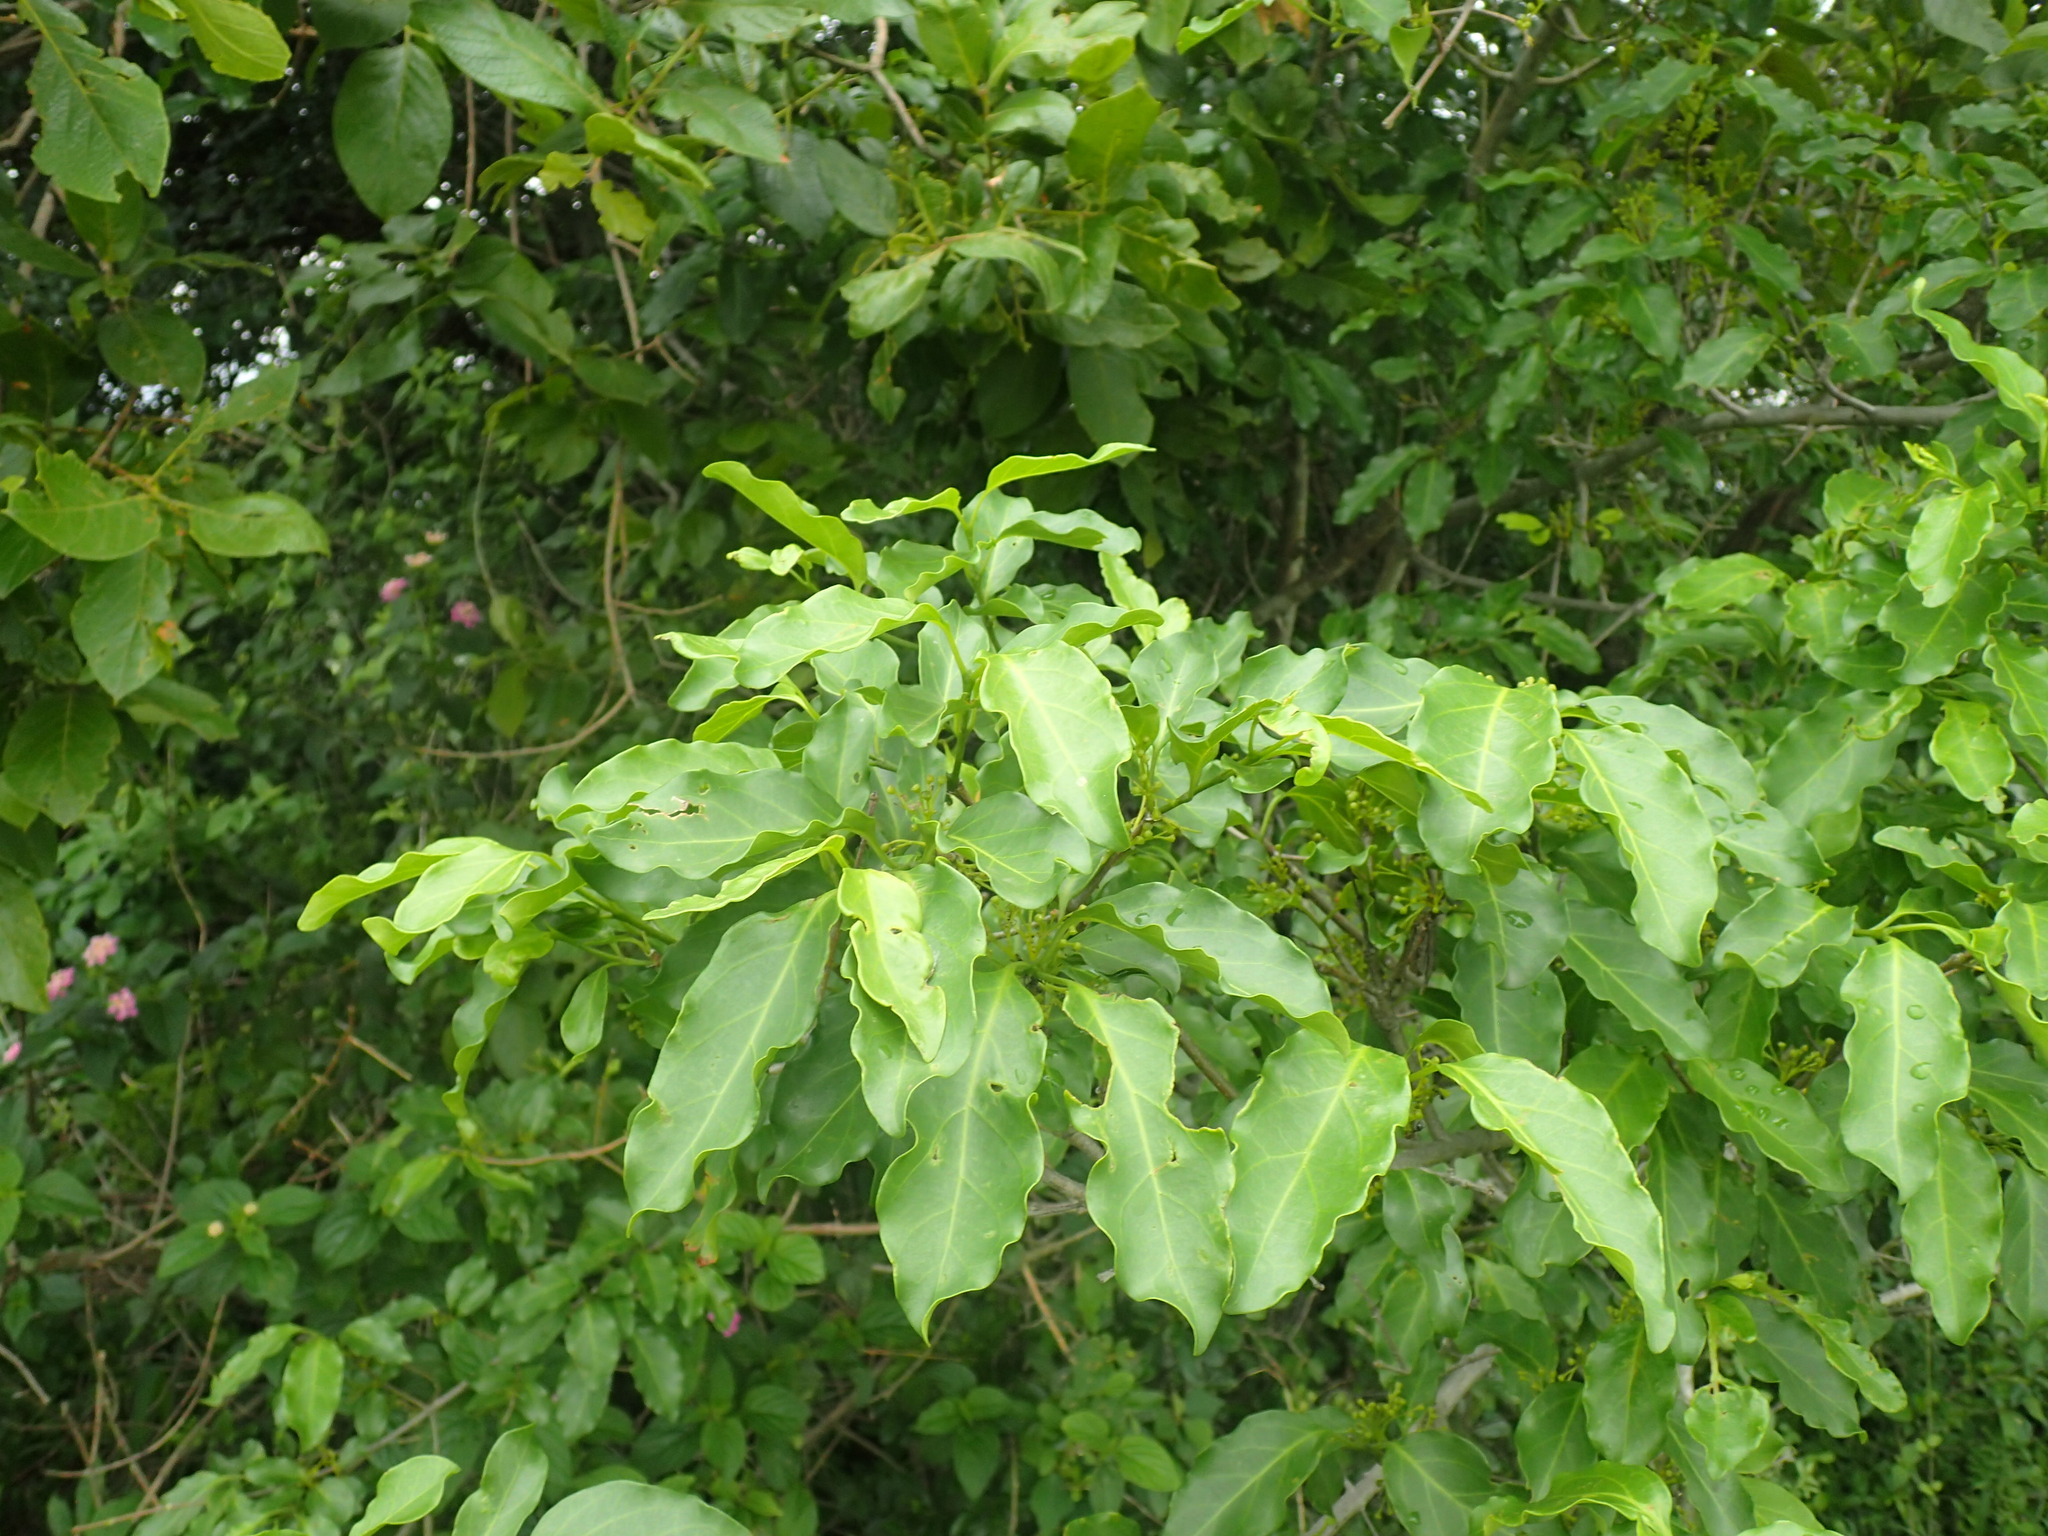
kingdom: Plantae
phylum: Tracheophyta
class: Magnoliopsida
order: Gentianales
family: Rubiaceae
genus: Canthium
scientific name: Canthium inerme
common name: Unarmed turkey-berry
